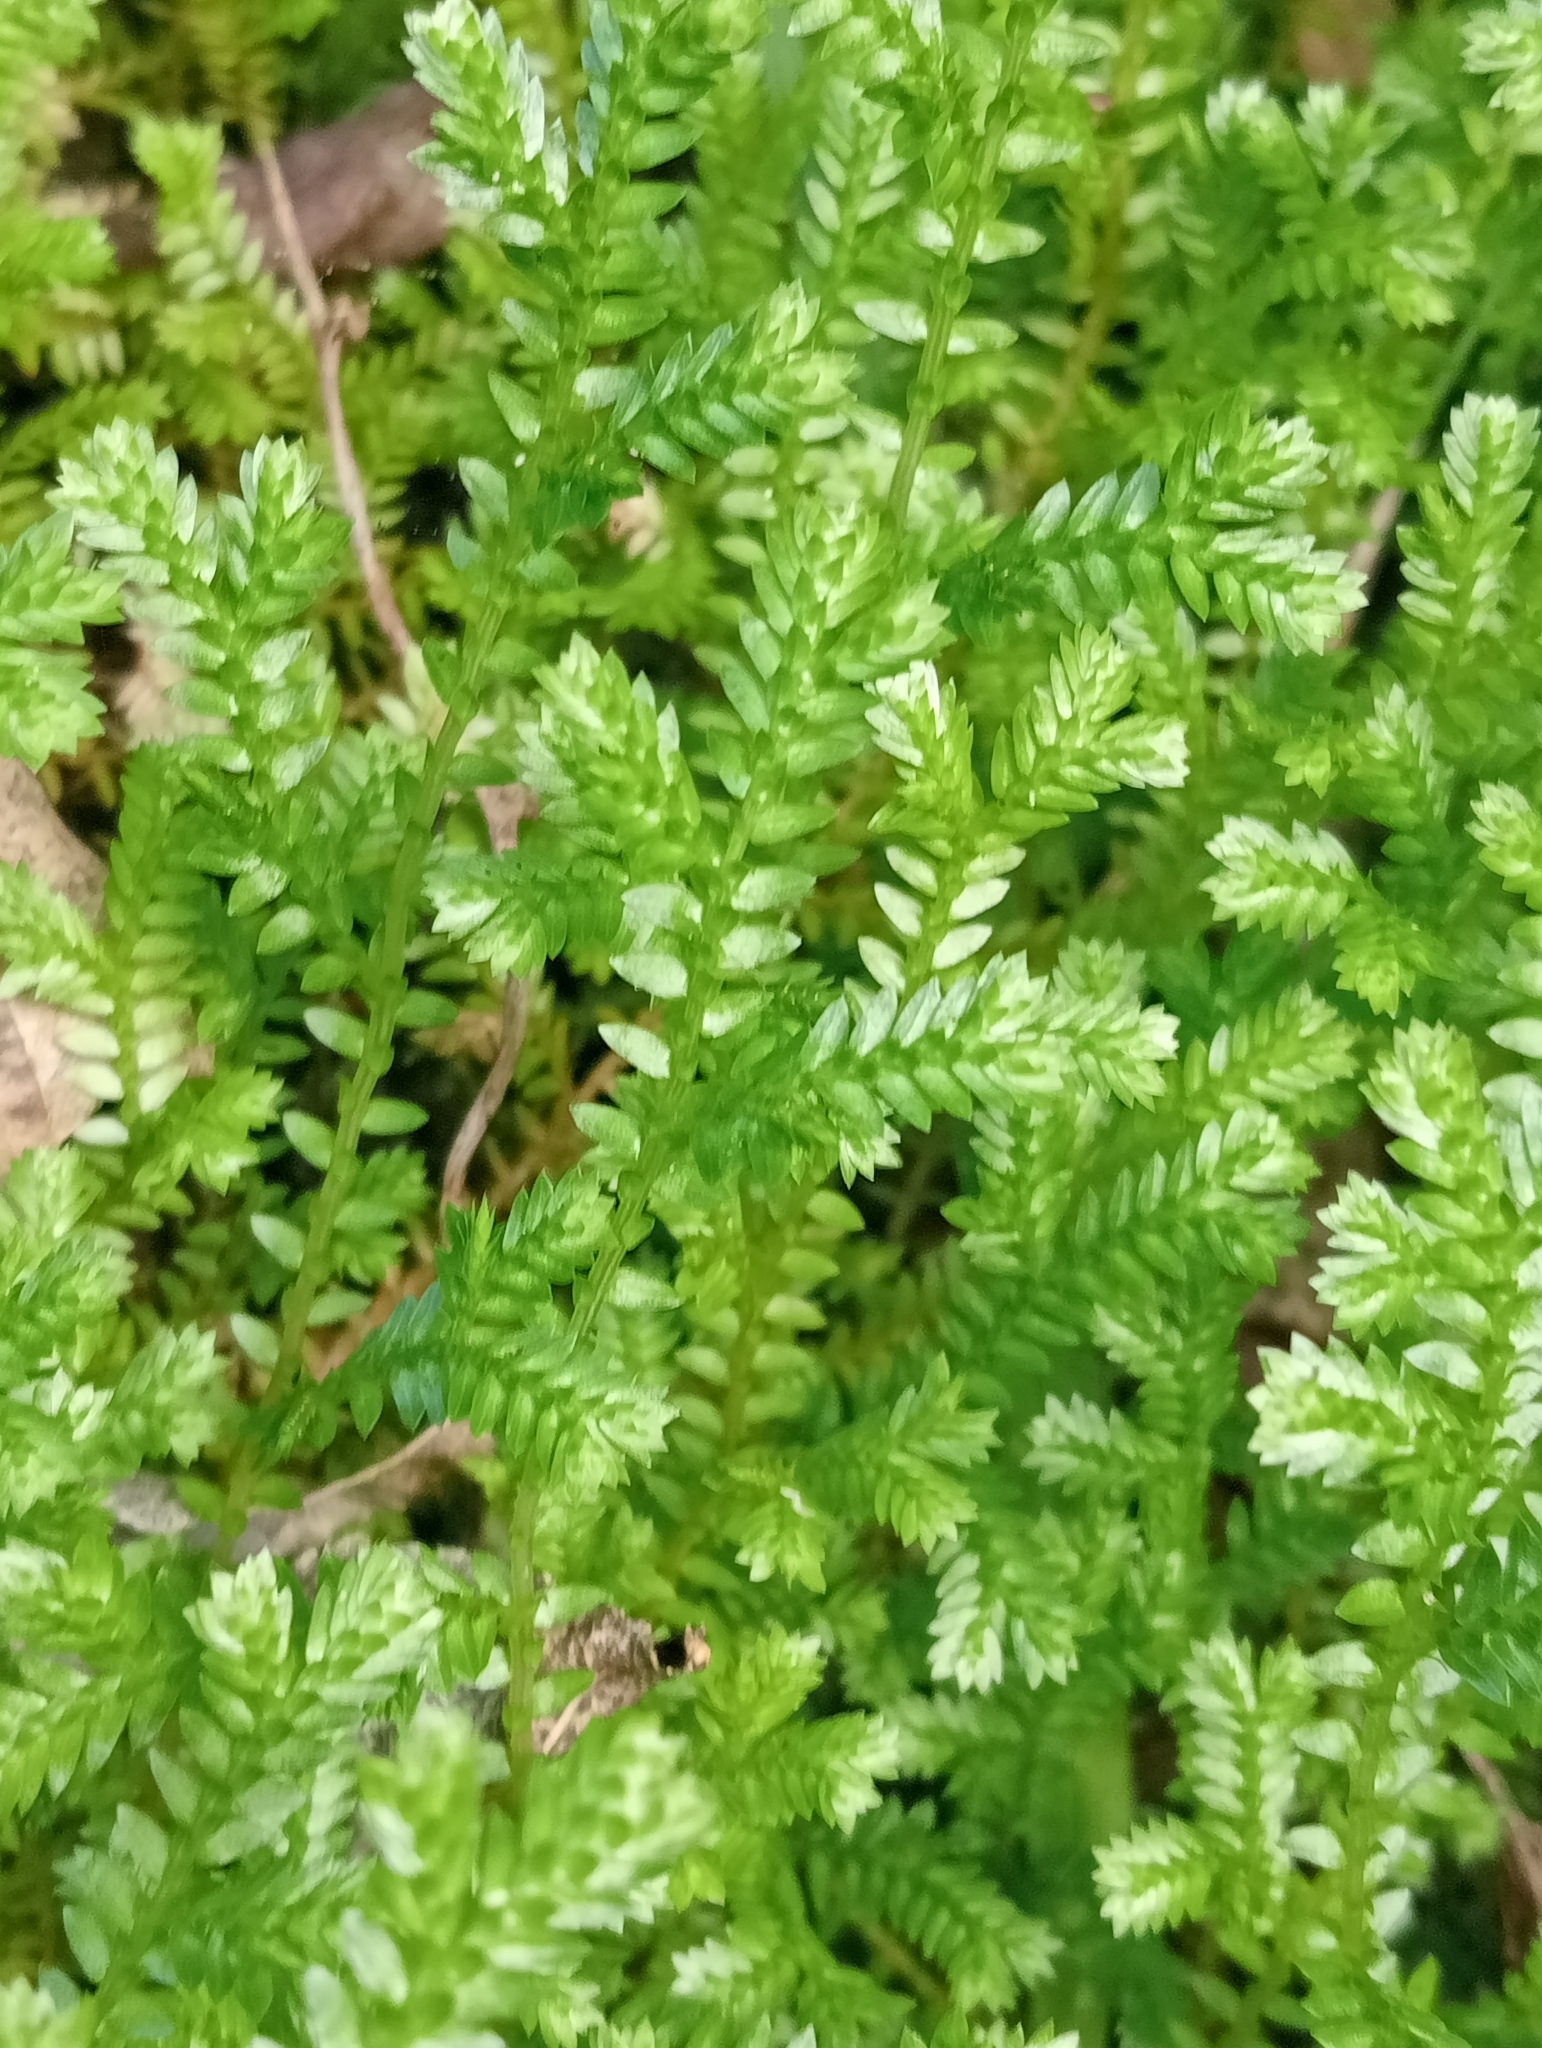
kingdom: Plantae
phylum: Tracheophyta
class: Lycopodiopsida
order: Selaginellales
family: Selaginellaceae
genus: Selaginella
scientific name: Selaginella kraussiana
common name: Krauss' spikemoss
